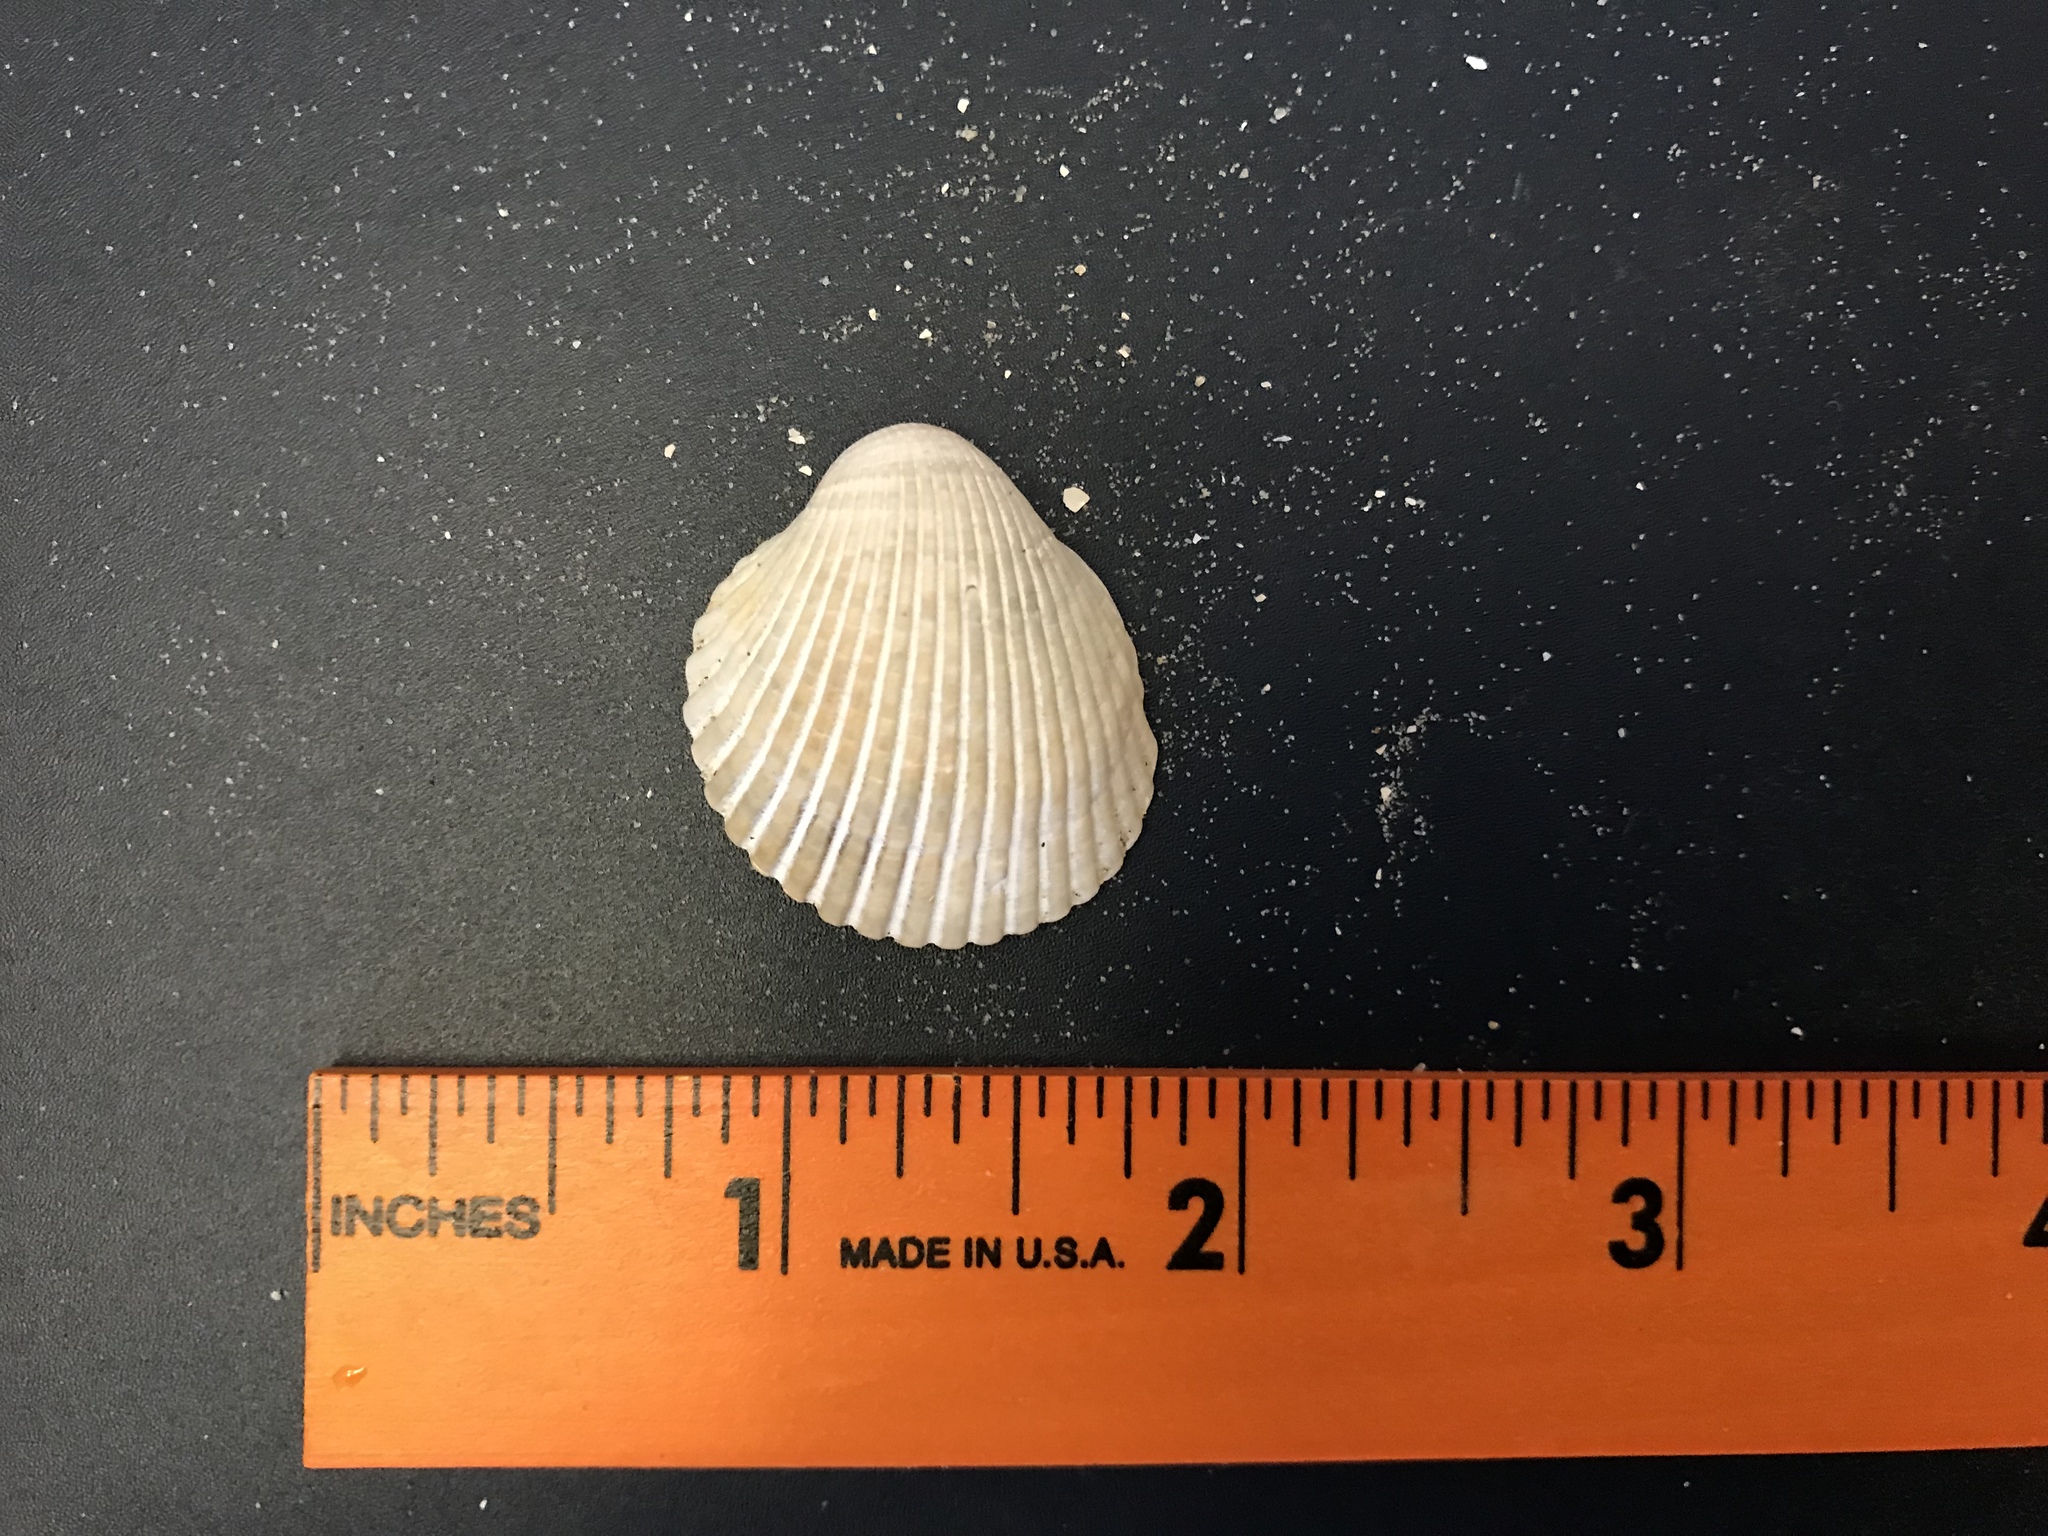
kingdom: Animalia
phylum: Mollusca
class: Bivalvia
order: Arcida
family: Arcidae
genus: Lunarca
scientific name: Lunarca ovalis
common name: Blood ark
